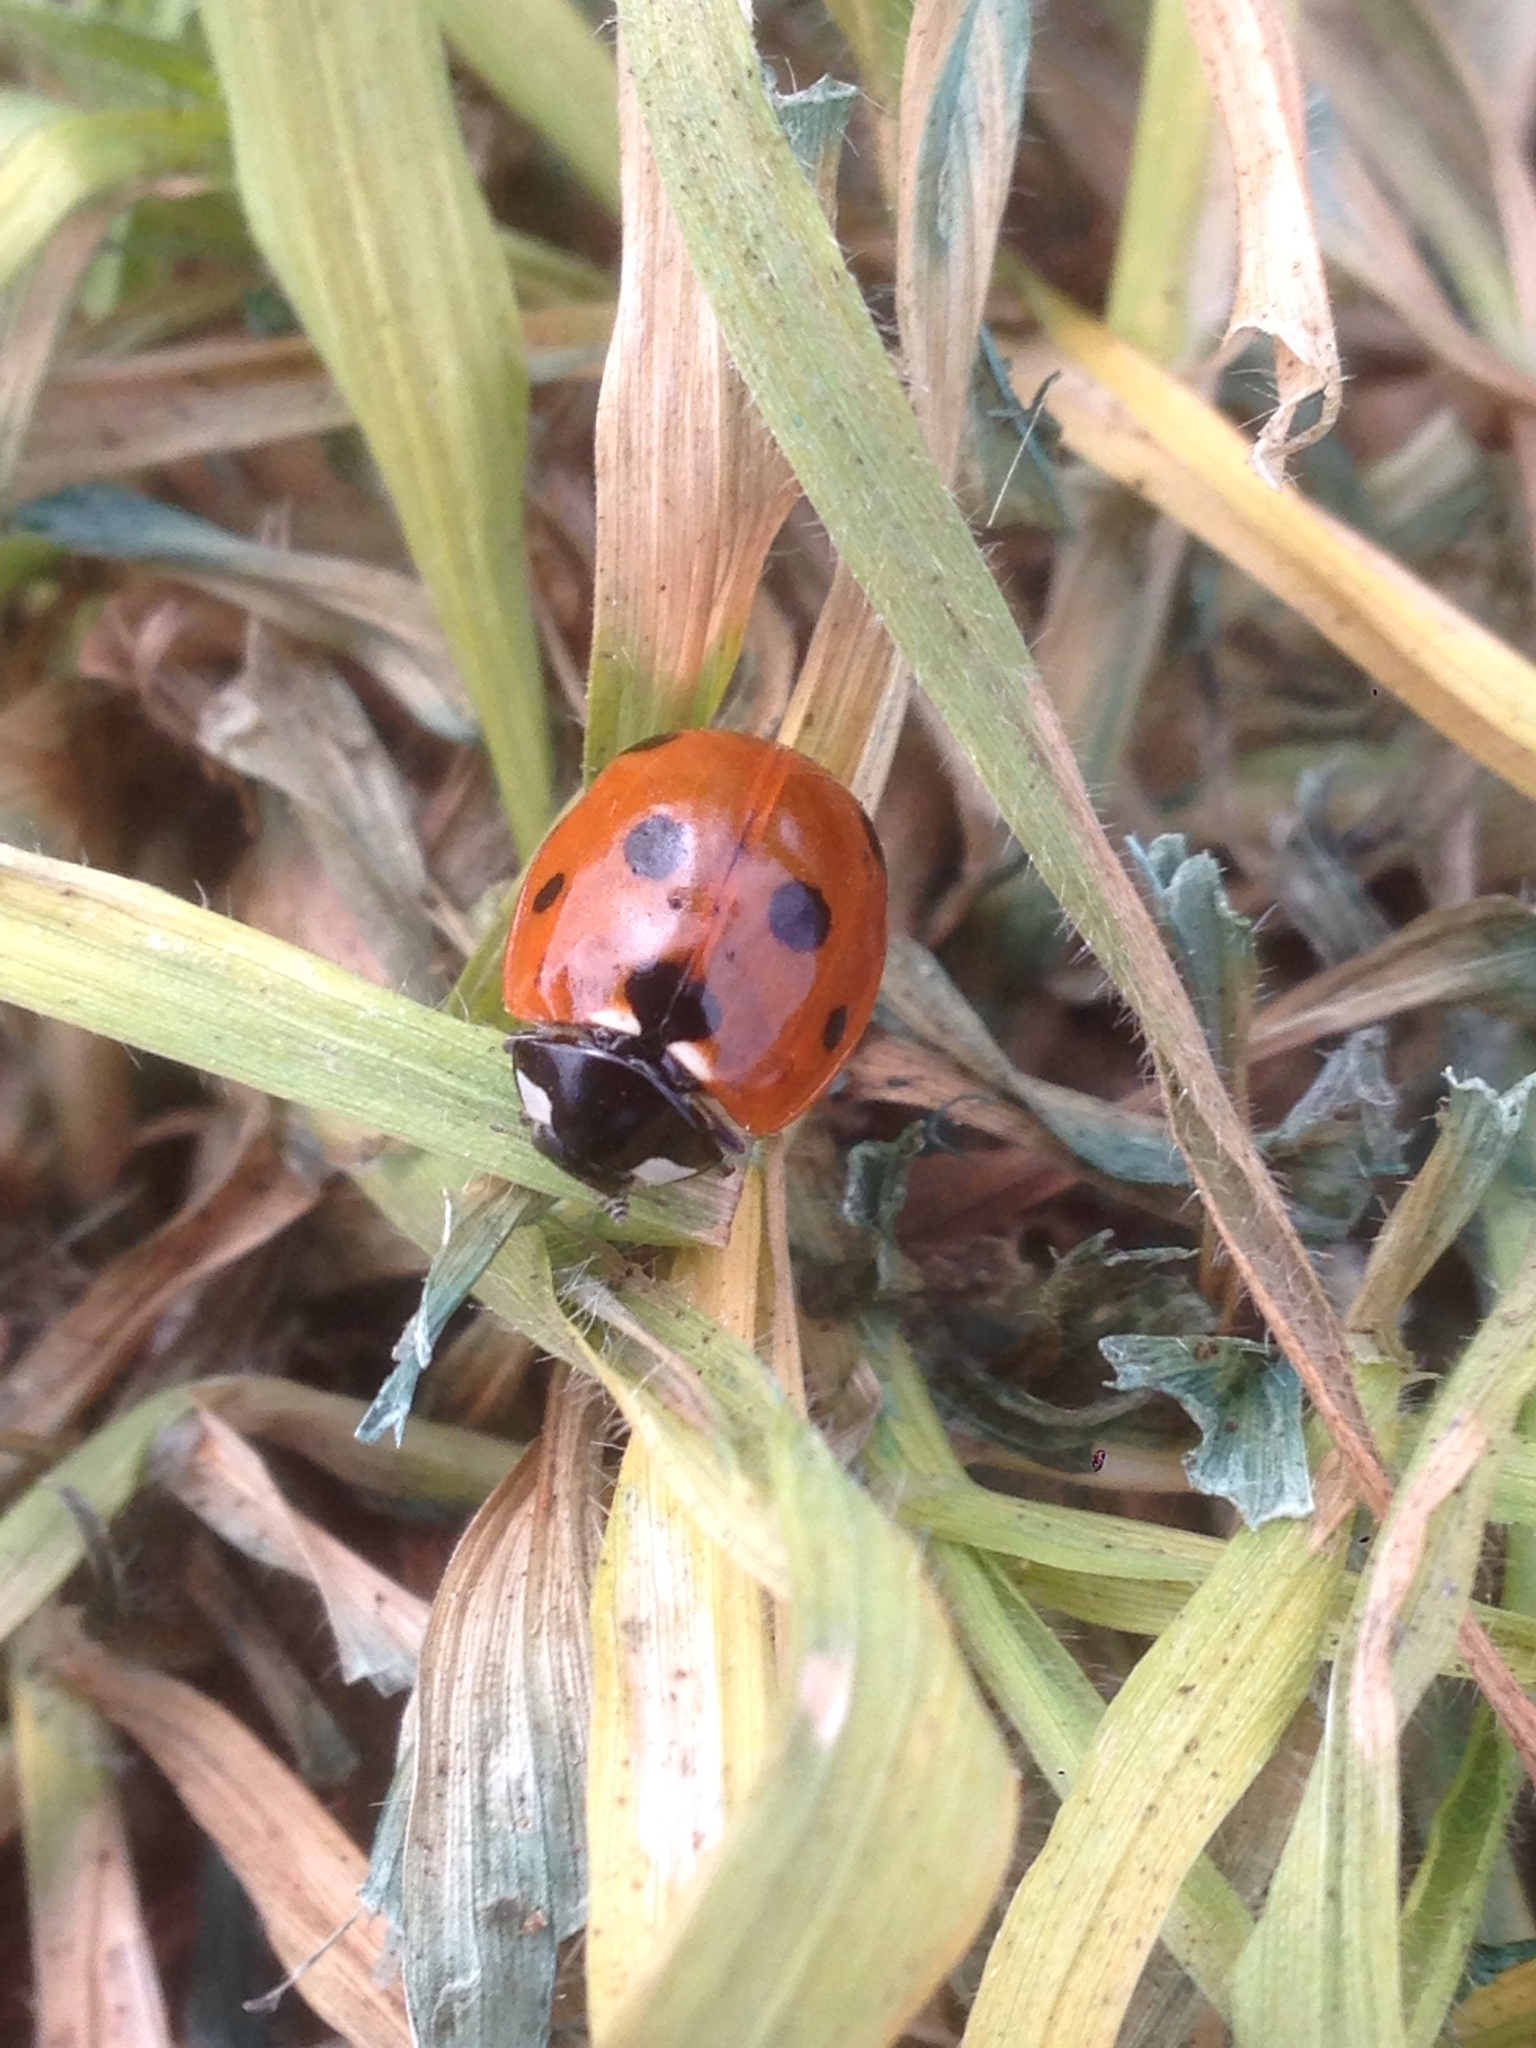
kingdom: Animalia
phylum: Arthropoda
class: Insecta
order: Coleoptera
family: Coccinellidae
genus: Coccinella
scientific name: Coccinella septempunctata
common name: Sevenspotted lady beetle
